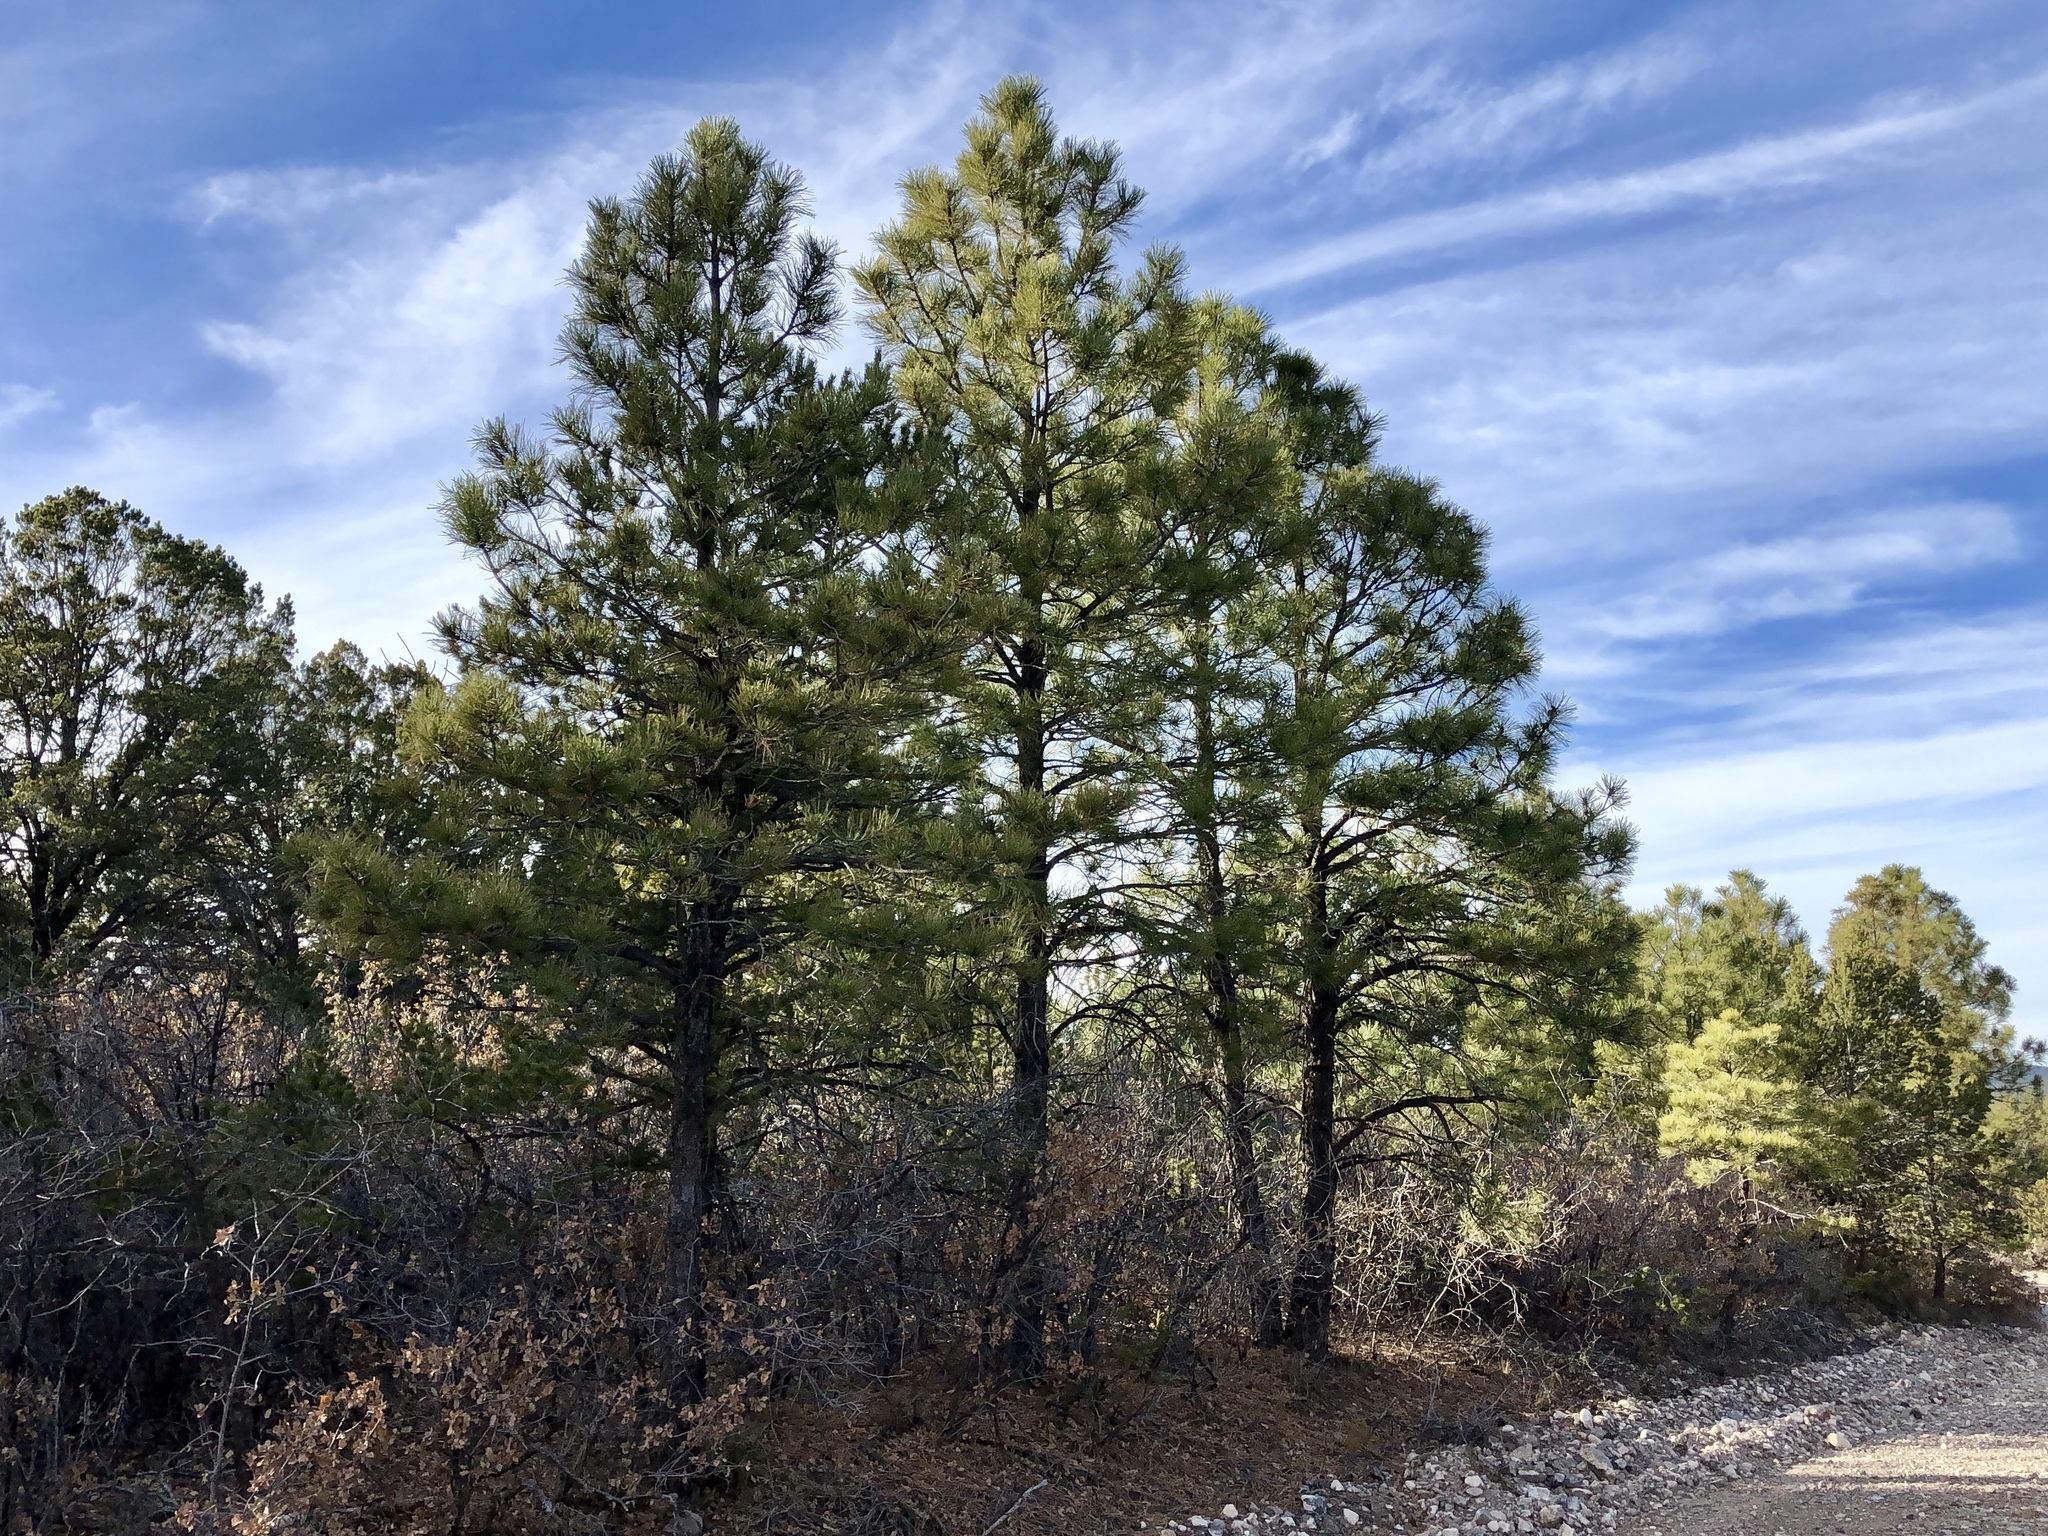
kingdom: Plantae
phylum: Tracheophyta
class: Pinopsida
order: Pinales
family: Pinaceae
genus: Pinus
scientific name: Pinus ponderosa
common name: Western yellow-pine
